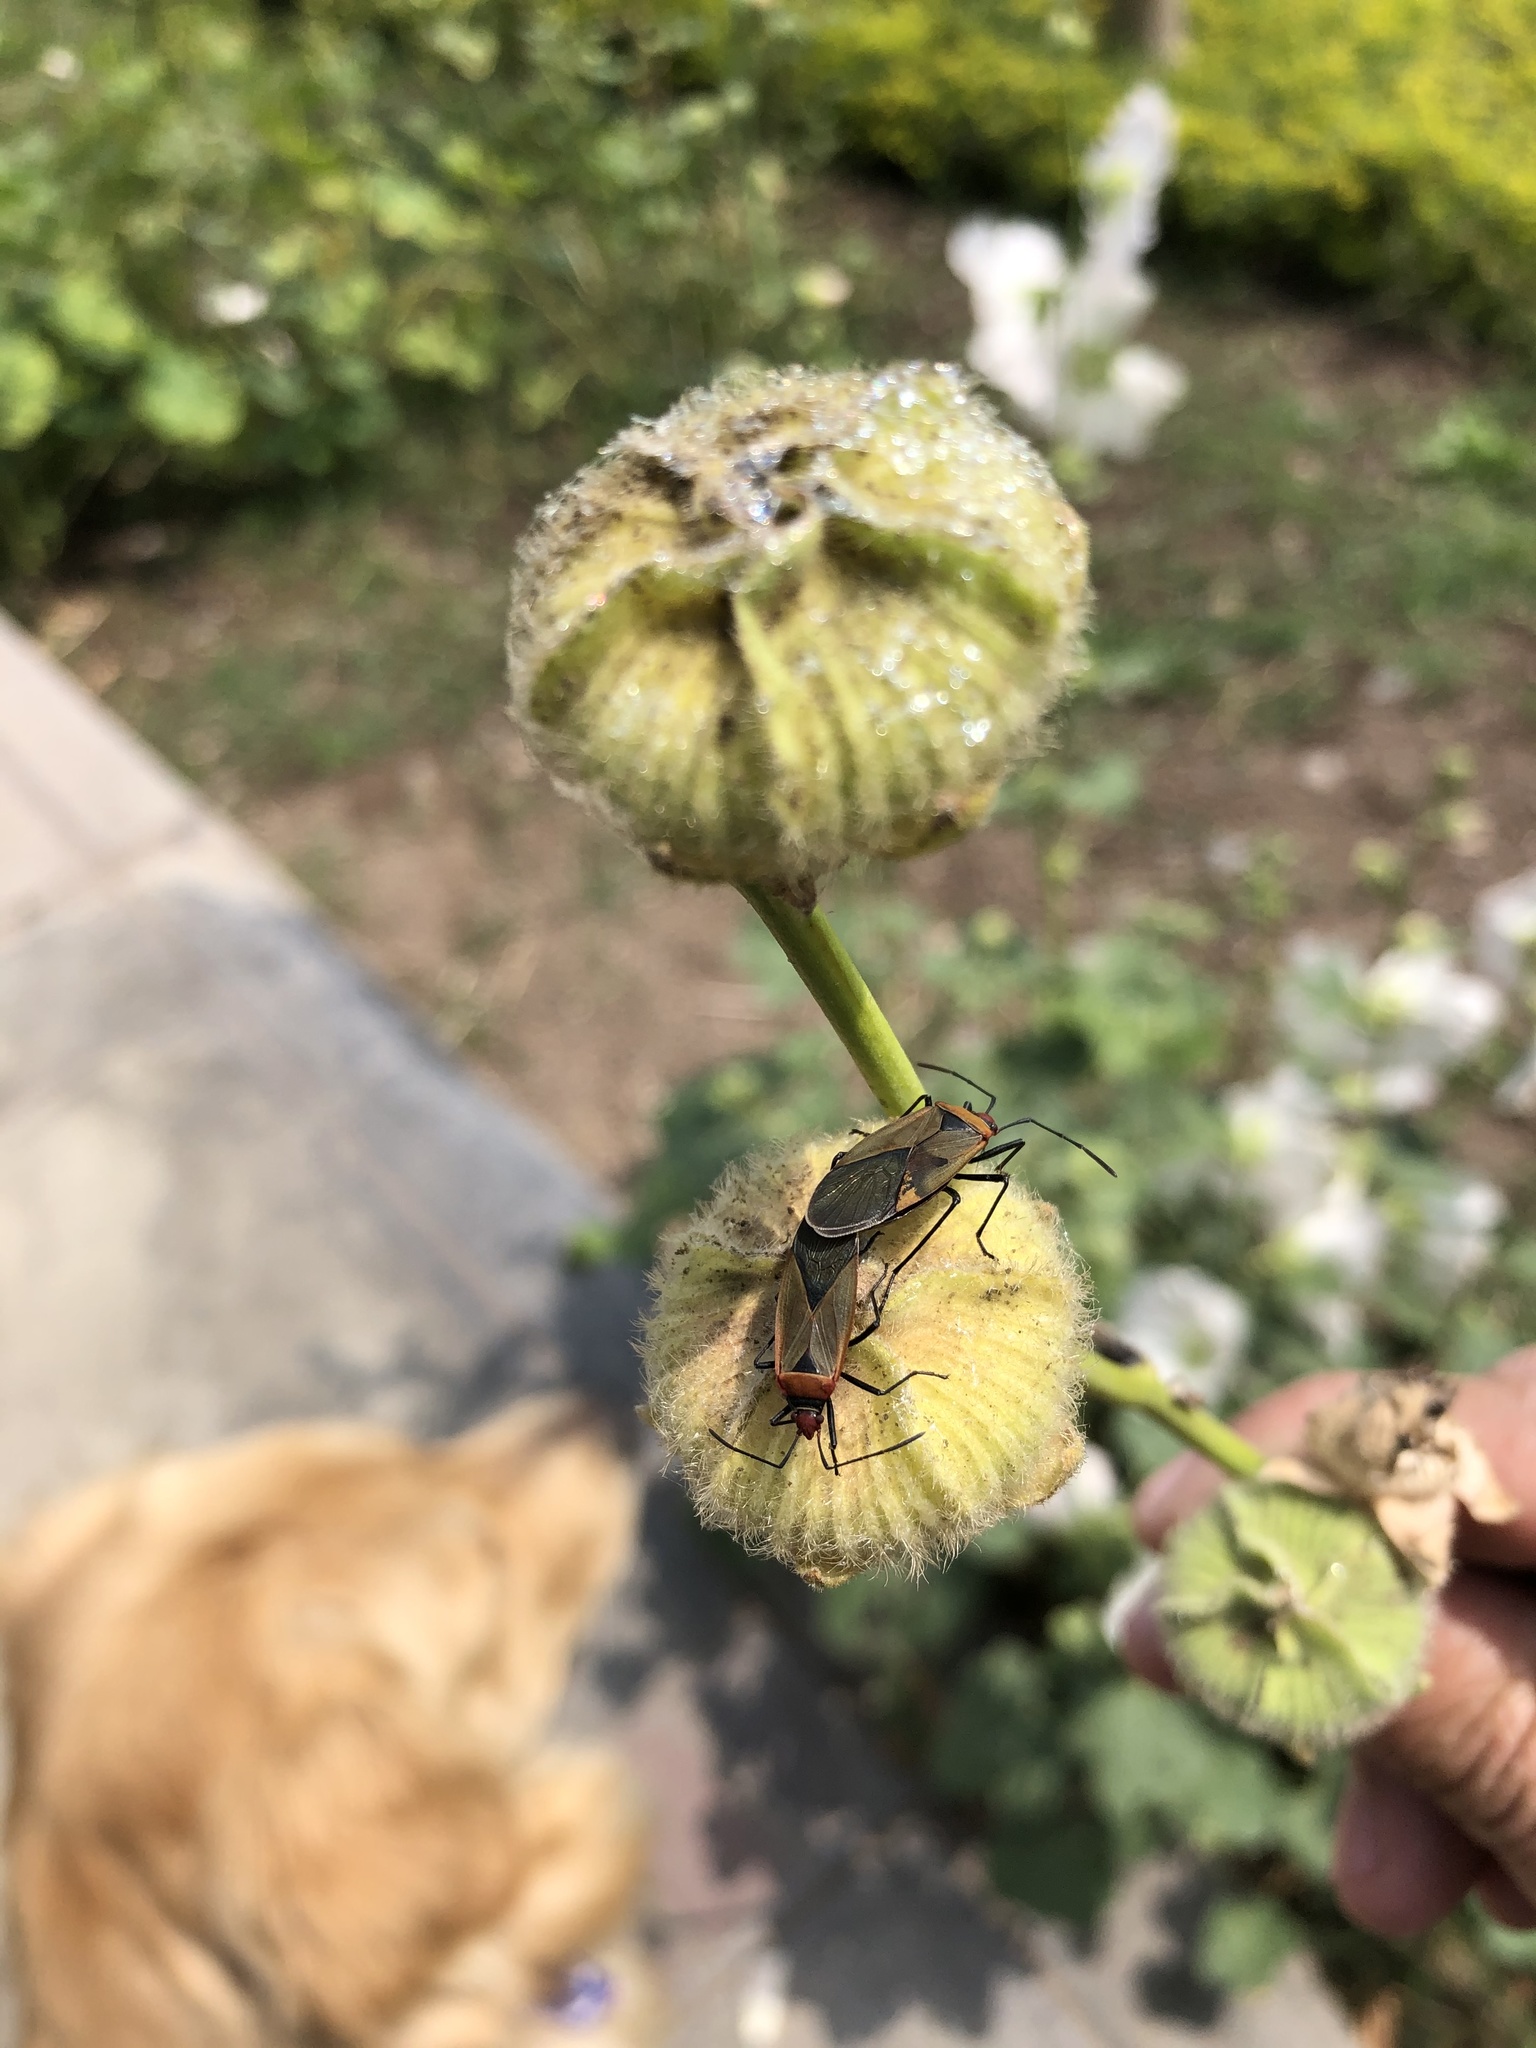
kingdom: Animalia
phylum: Arthropoda
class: Insecta
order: Hemiptera
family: Pyrrhocoridae
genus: Dysdercus
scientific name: Dysdercus peruvianus
